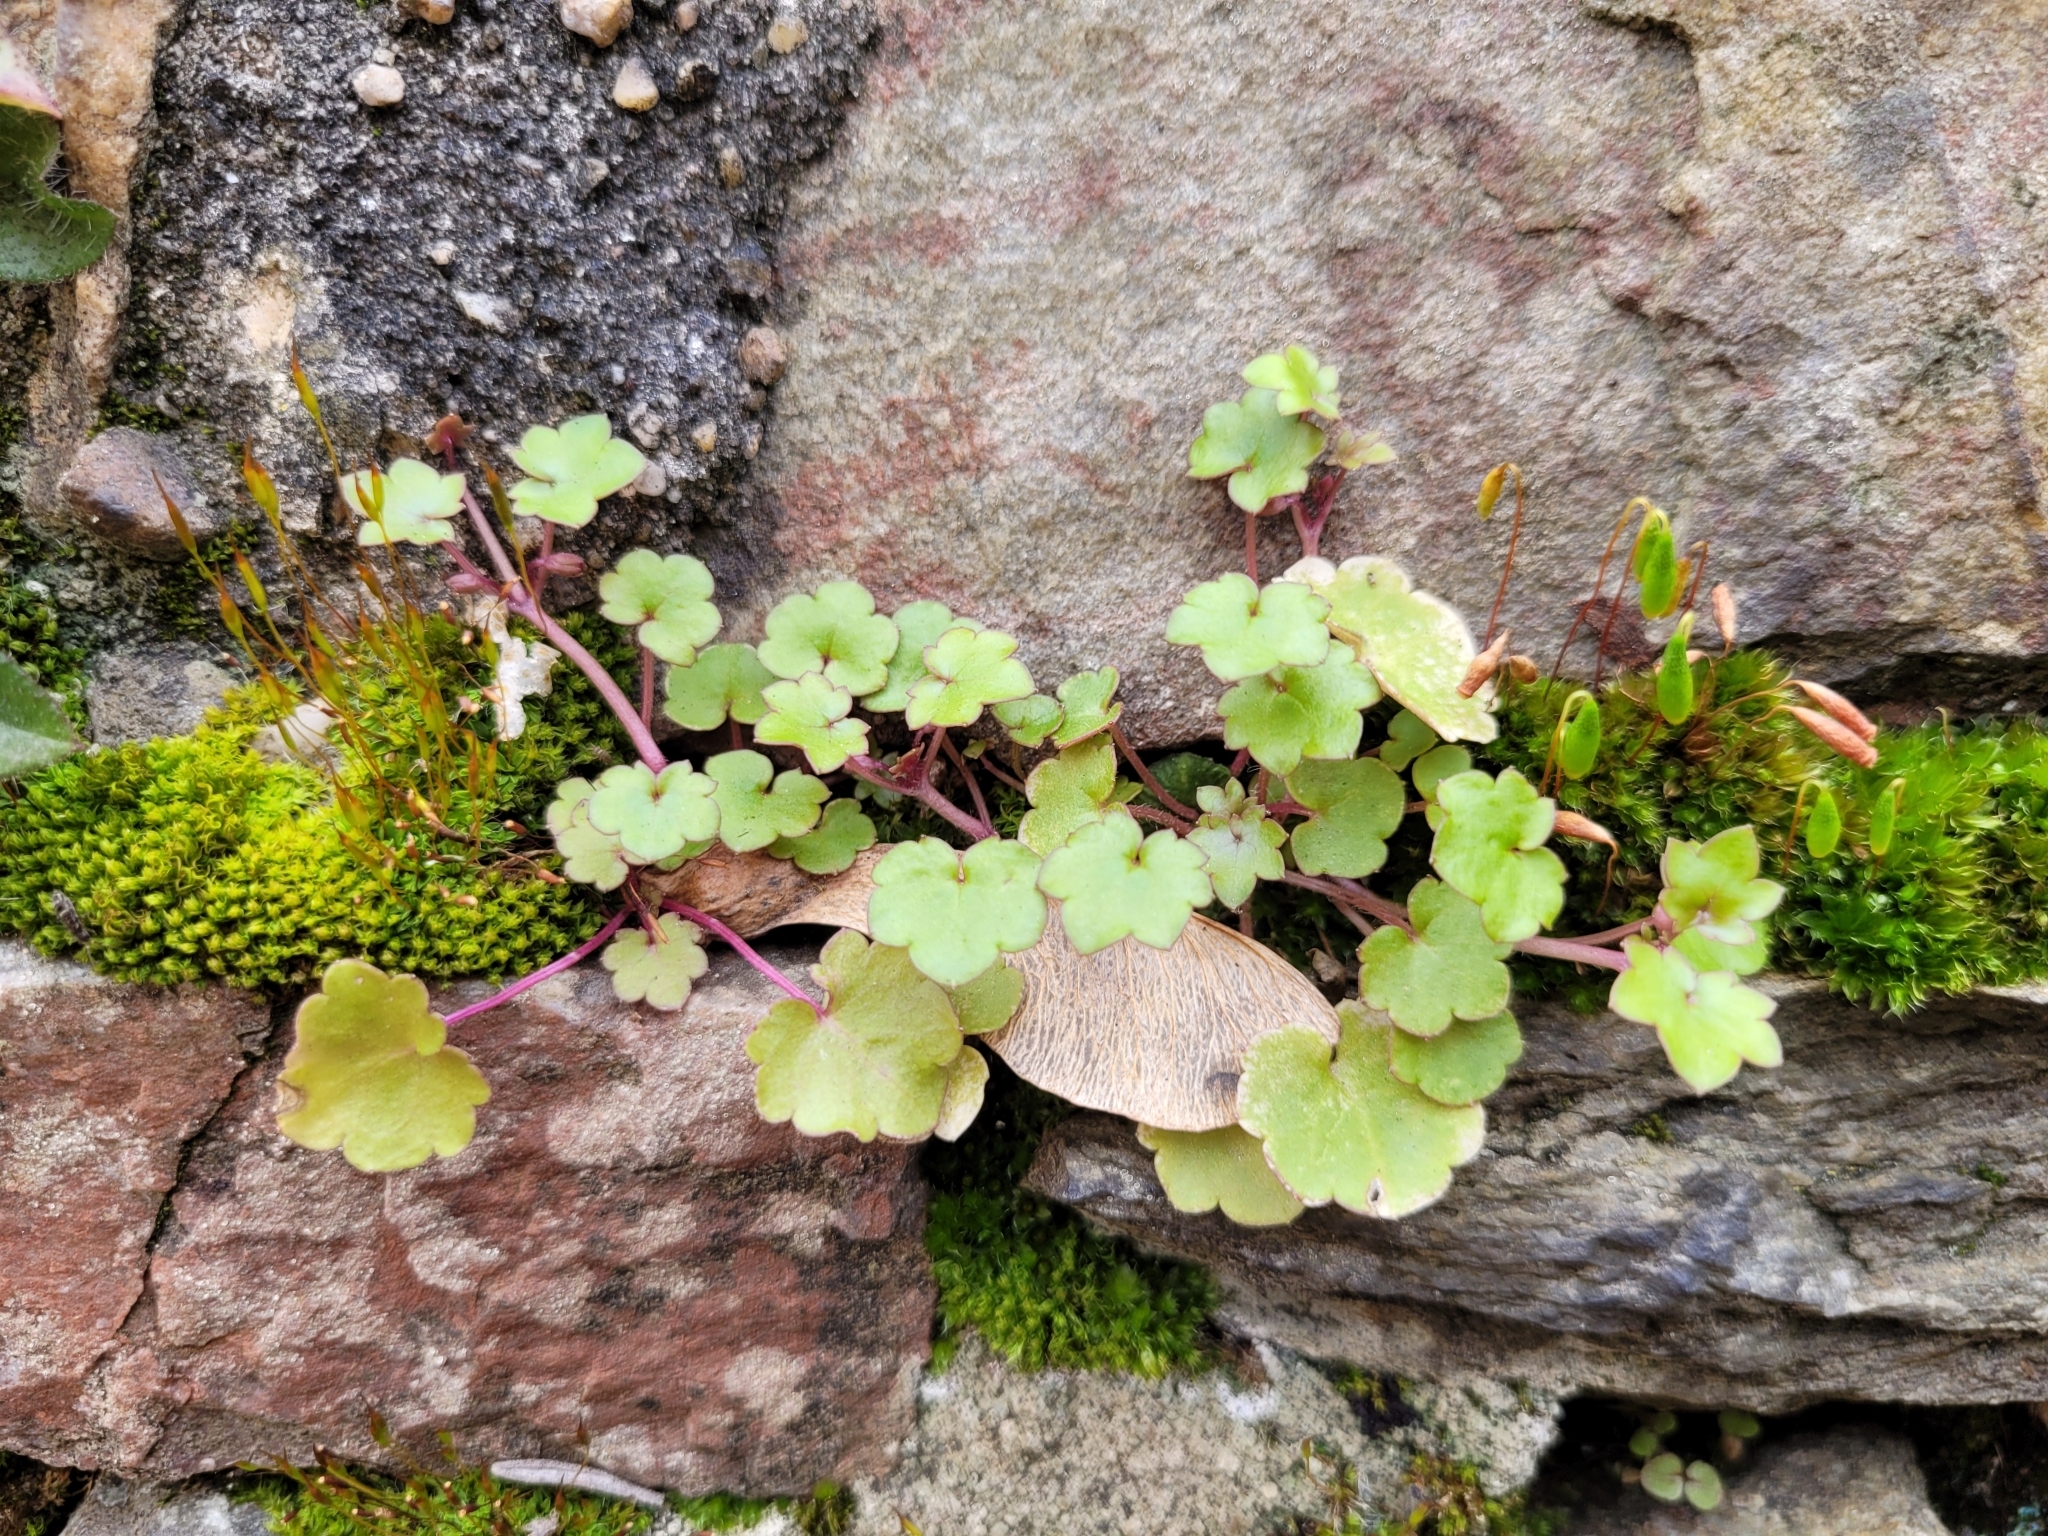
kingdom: Plantae
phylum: Tracheophyta
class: Magnoliopsida
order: Lamiales
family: Plantaginaceae
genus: Cymbalaria
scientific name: Cymbalaria muralis
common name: Ivy-leaved toadflax
